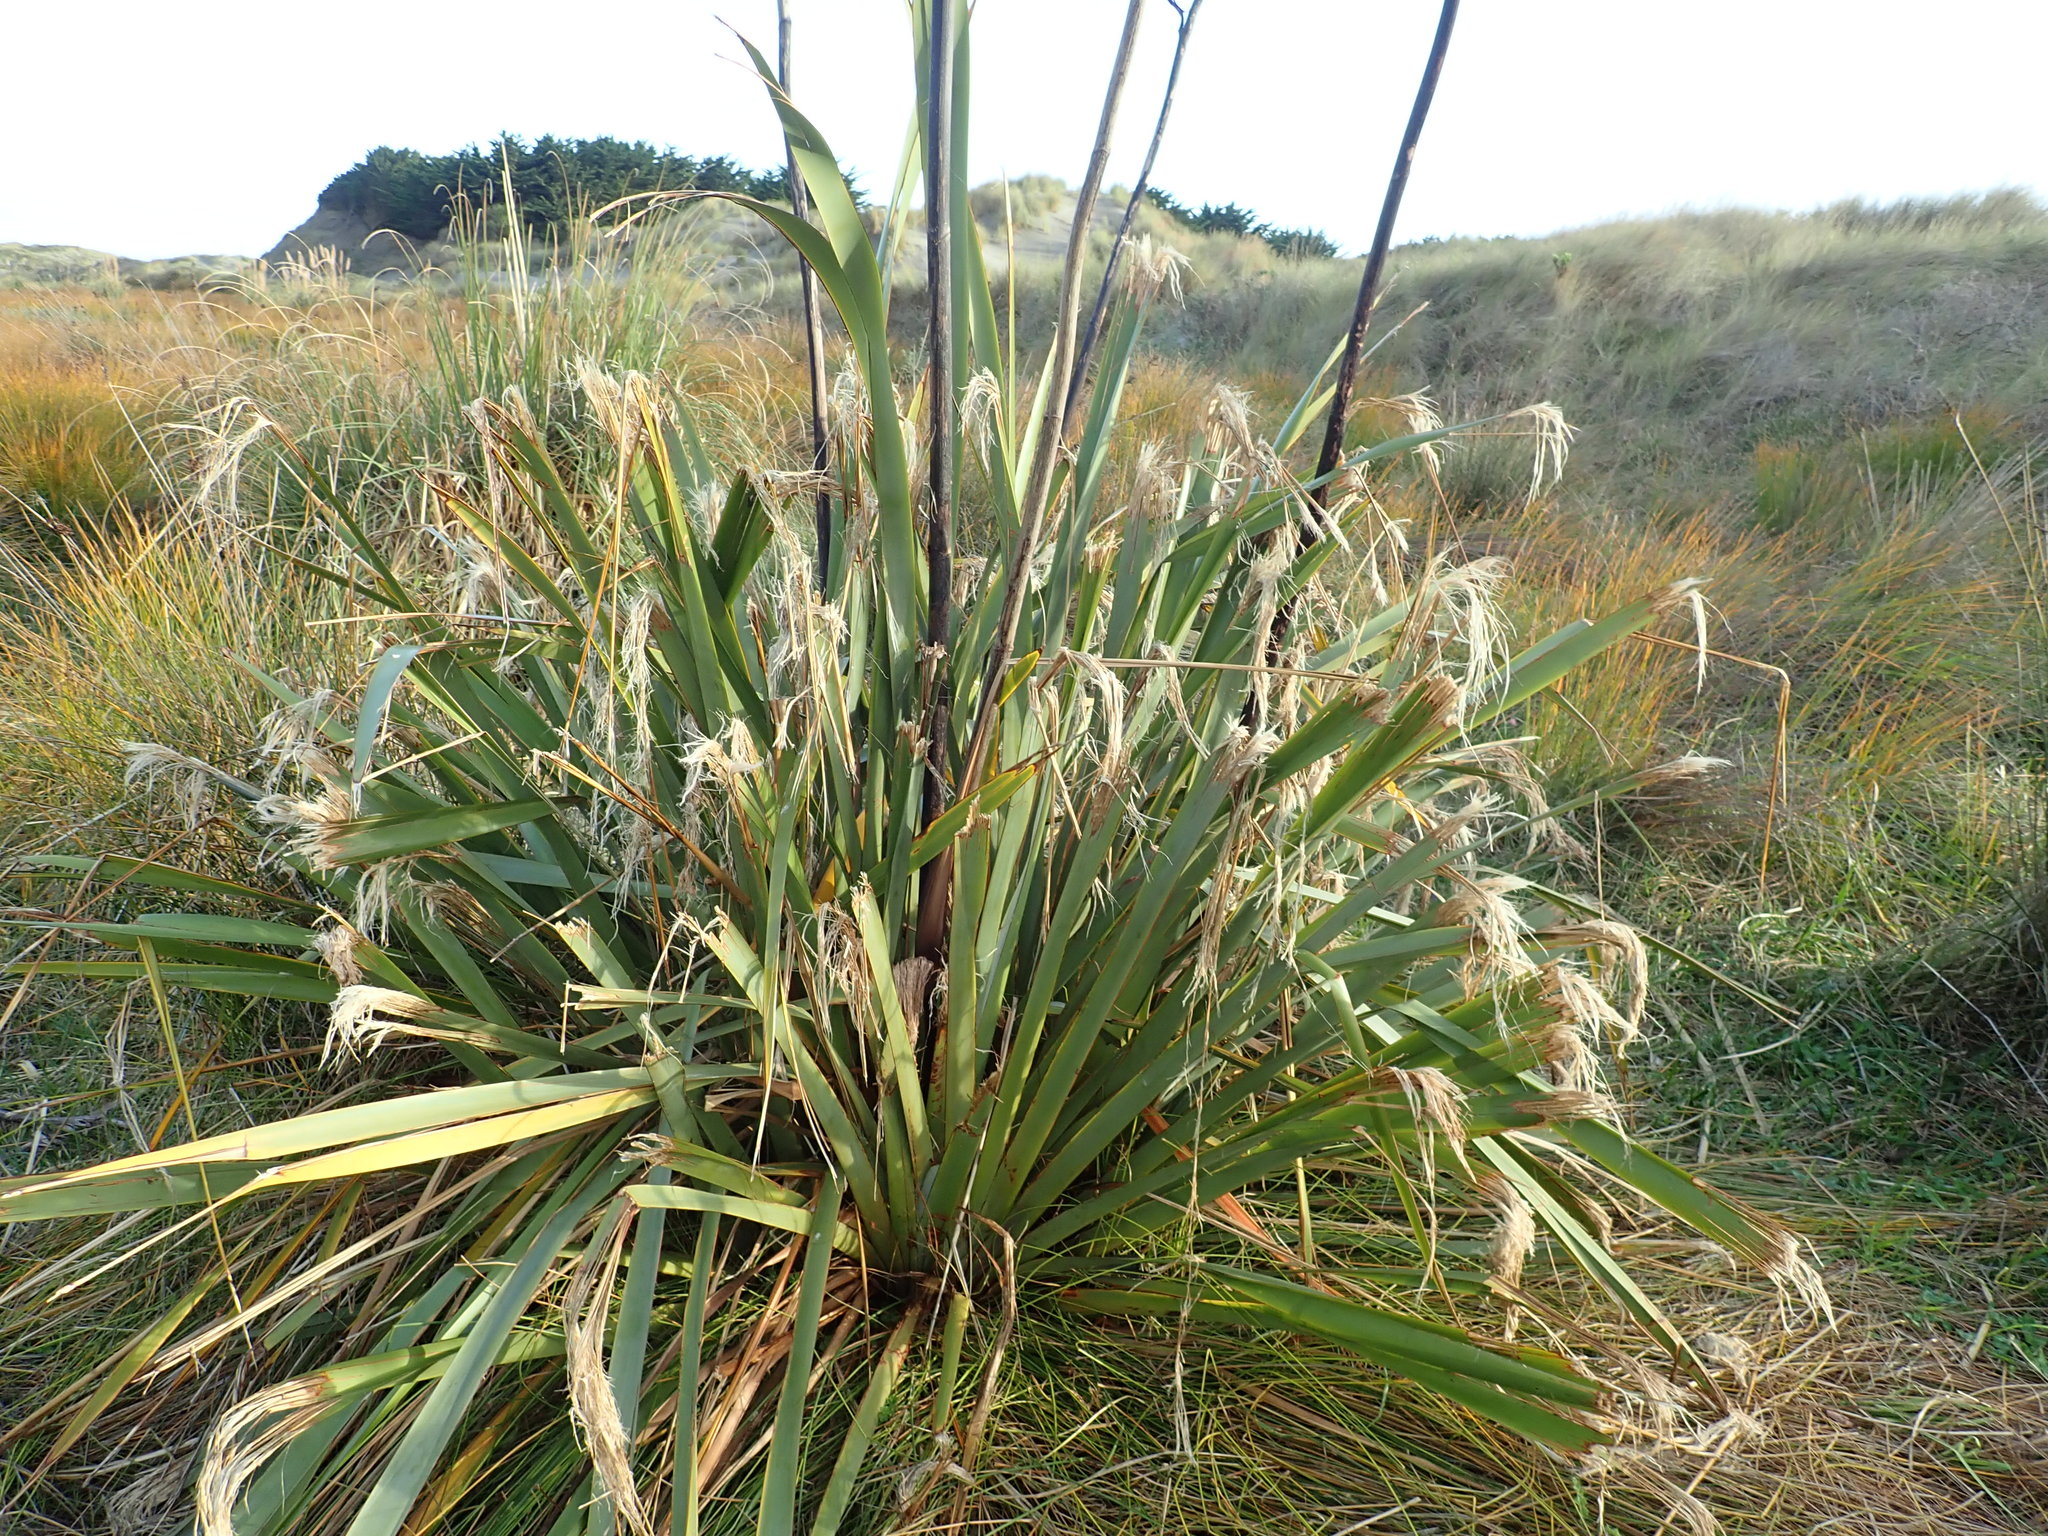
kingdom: Plantae
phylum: Tracheophyta
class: Liliopsida
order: Asparagales
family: Asphodelaceae
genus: Phormium
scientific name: Phormium tenax
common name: New zealand flax
